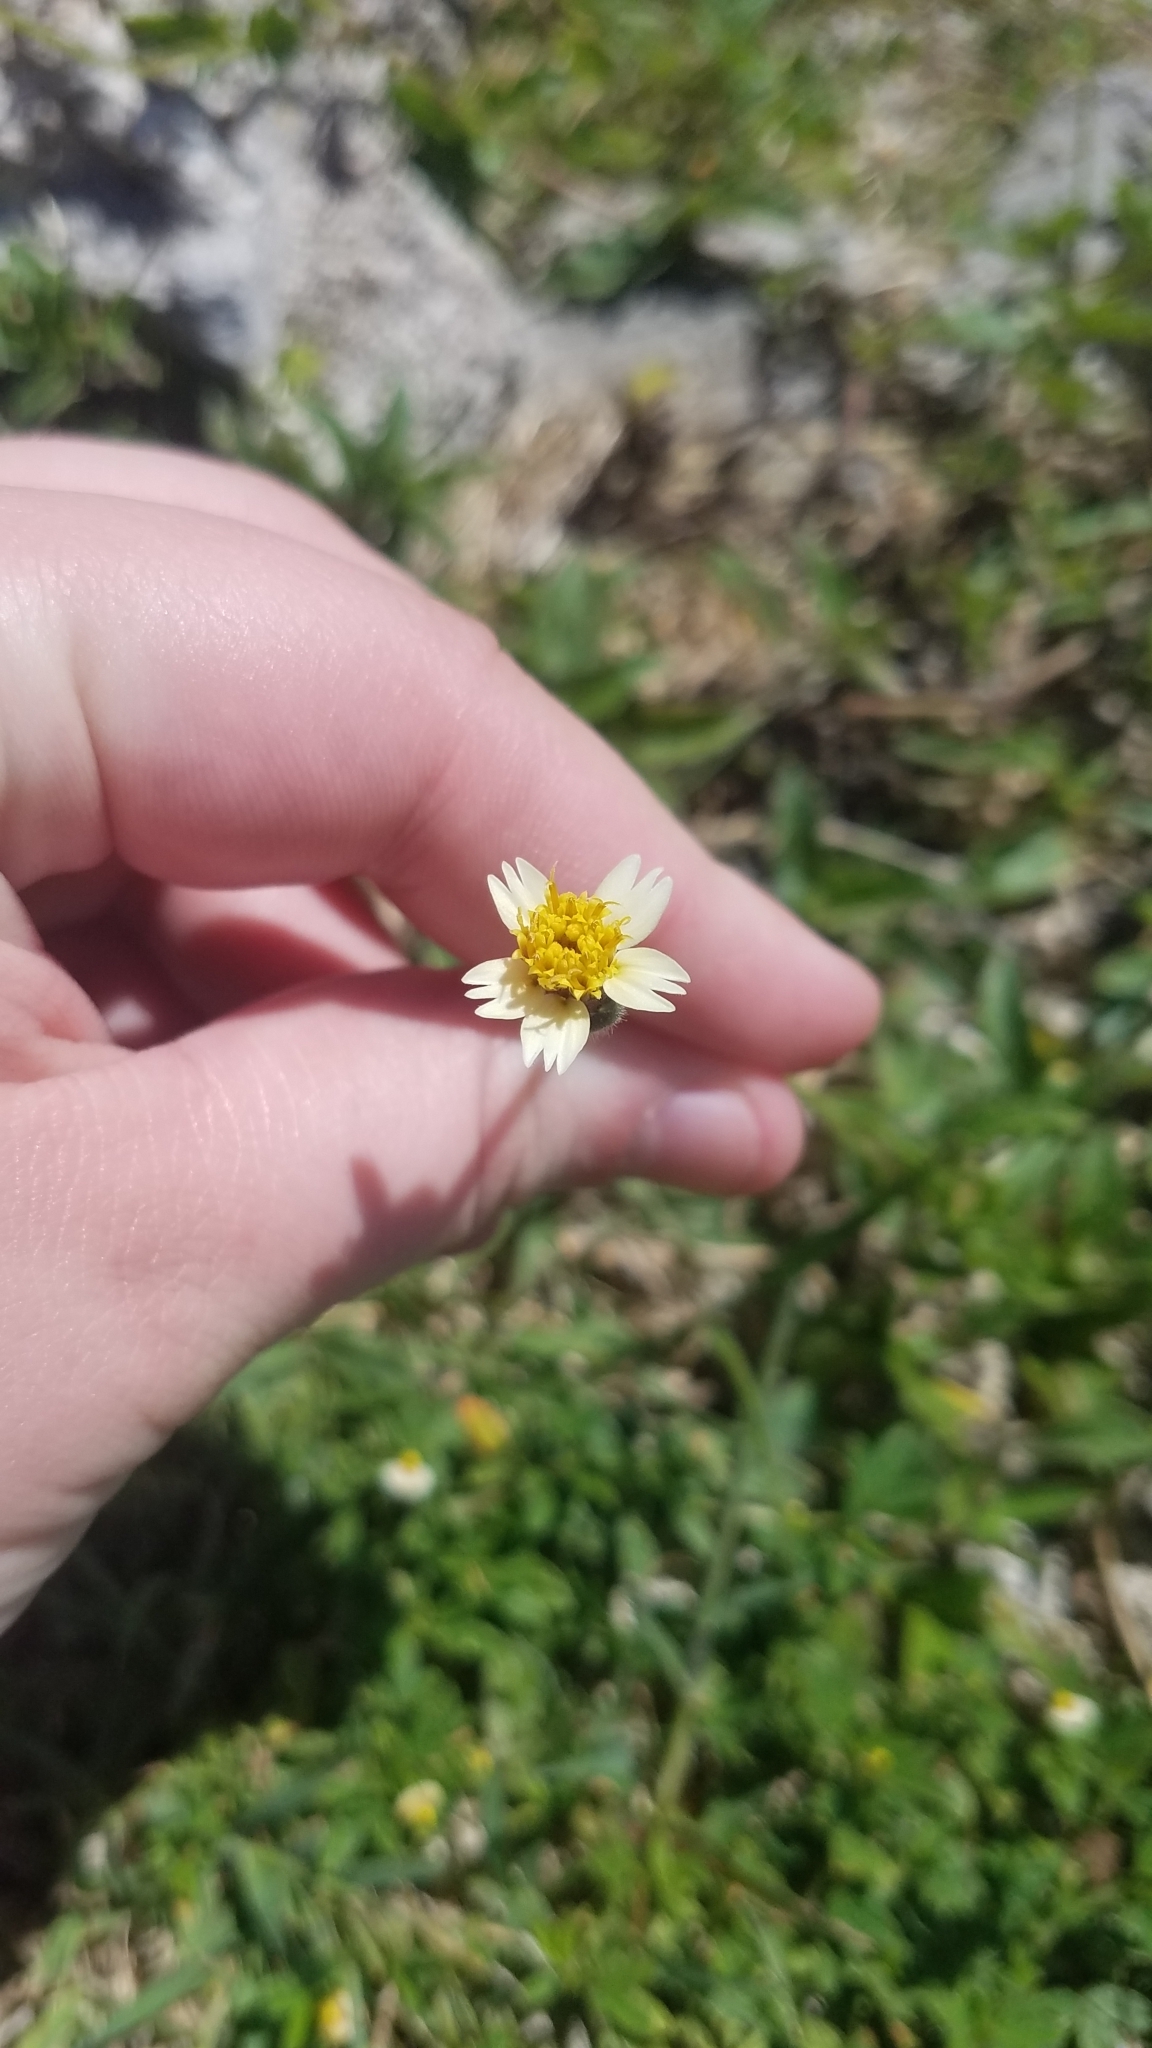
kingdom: Plantae
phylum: Tracheophyta
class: Magnoliopsida
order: Asterales
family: Asteraceae
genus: Tridax
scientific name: Tridax procumbens
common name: Coatbuttons
